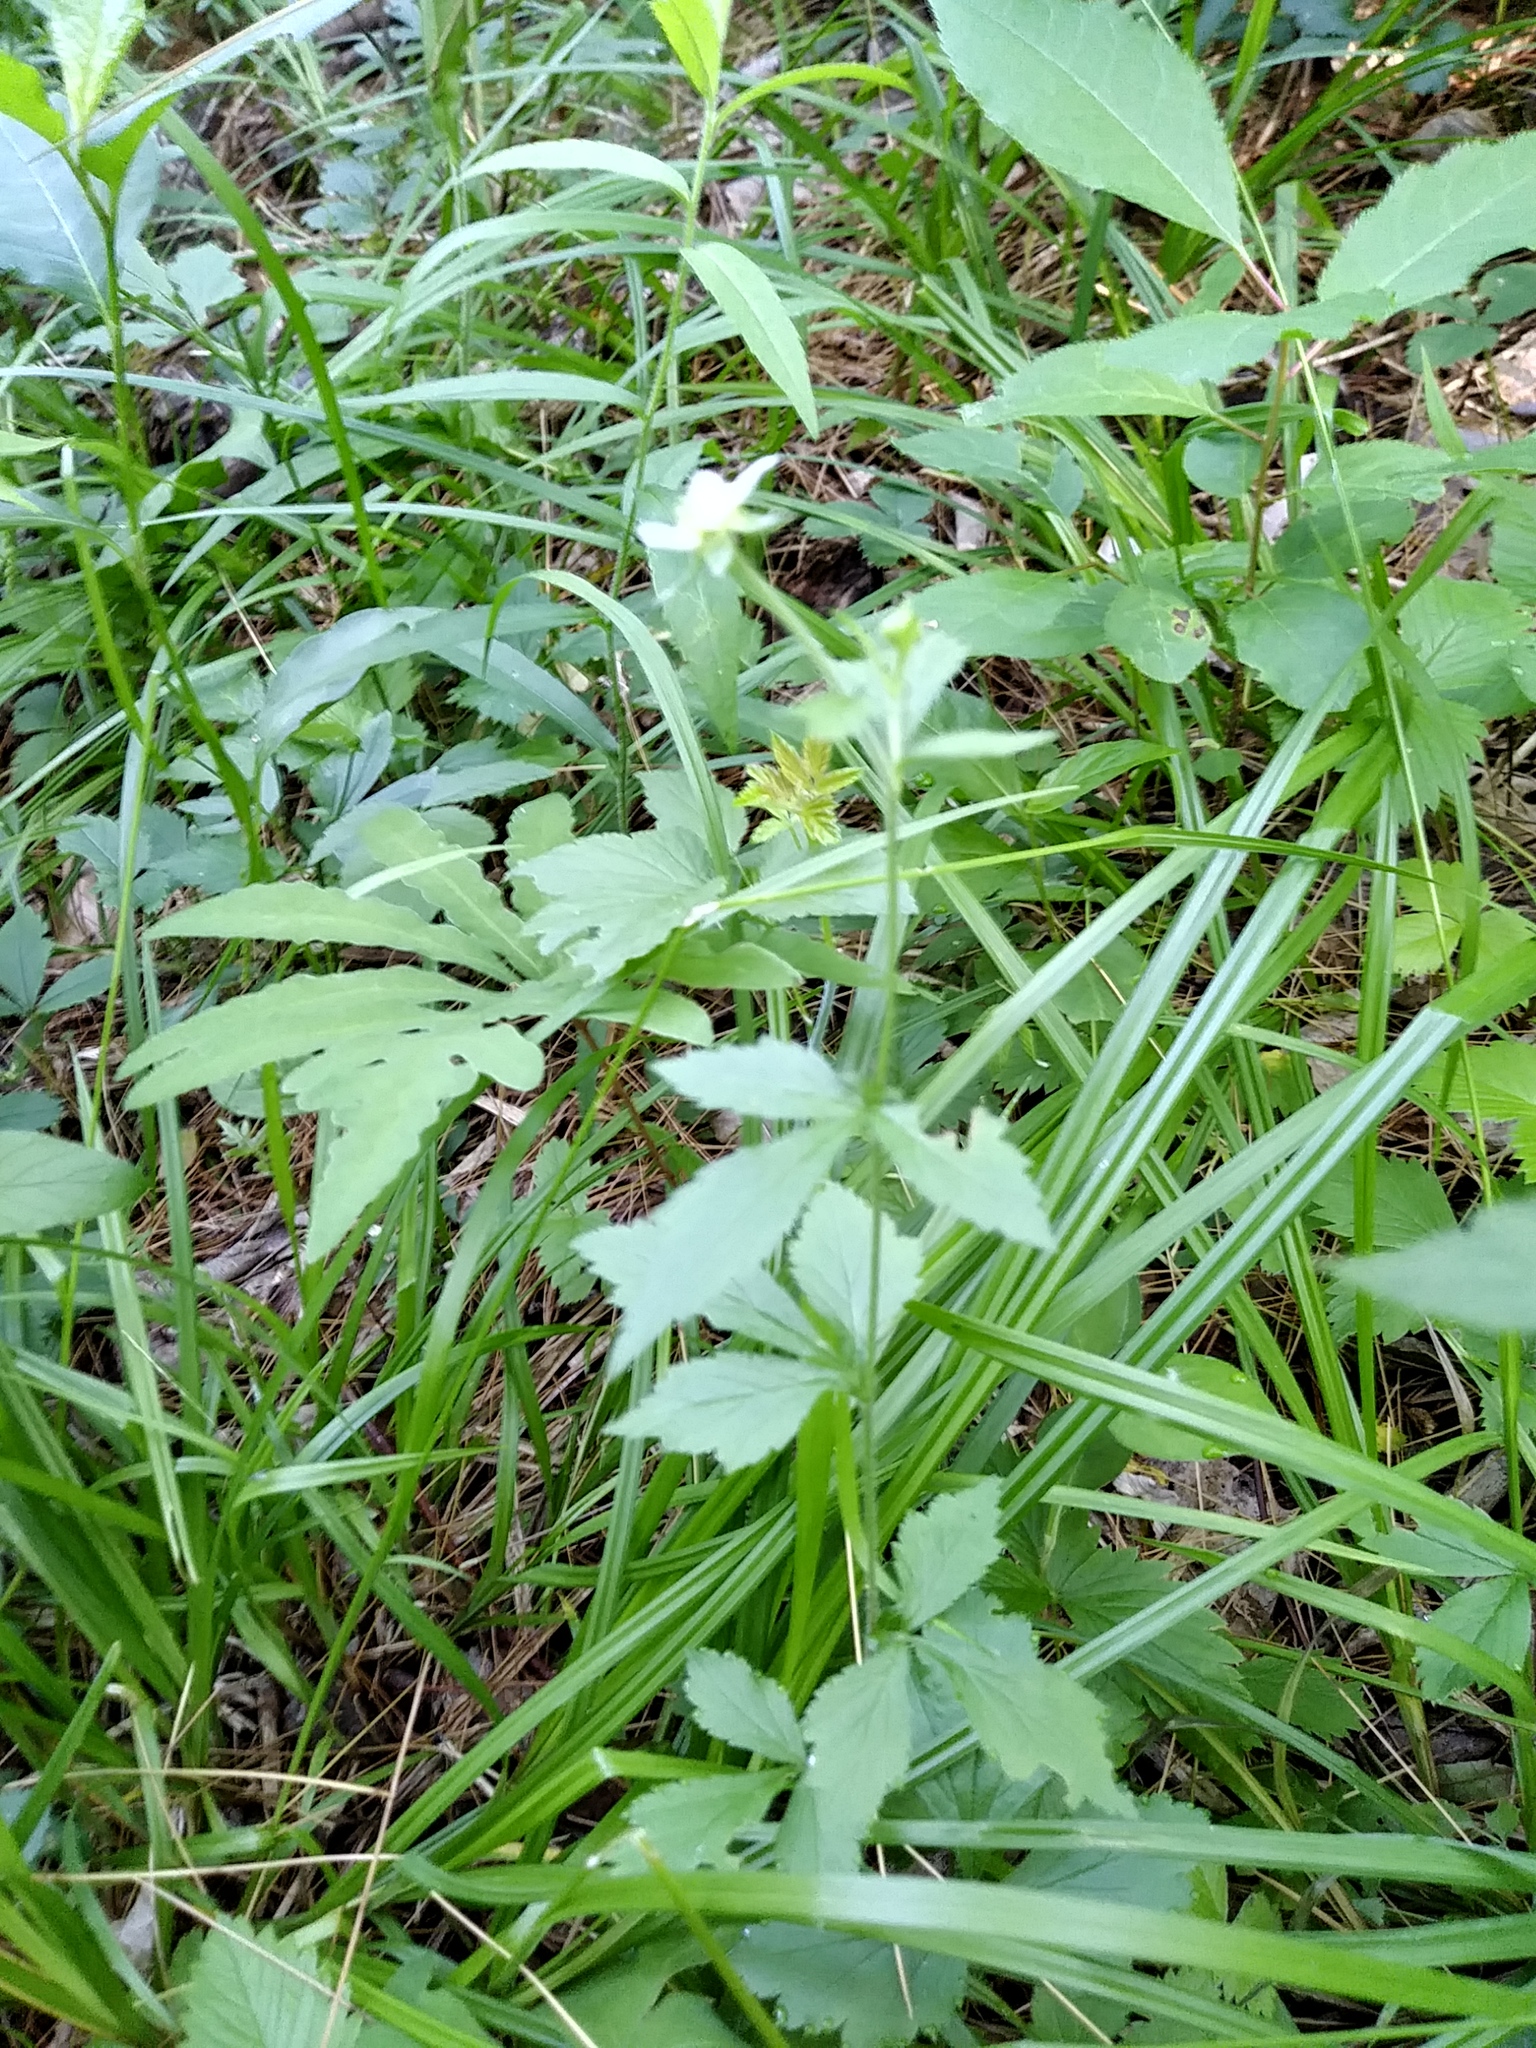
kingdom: Plantae
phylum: Tracheophyta
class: Magnoliopsida
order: Rosales
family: Rosaceae
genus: Geum
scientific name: Geum canadense
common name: White avens
